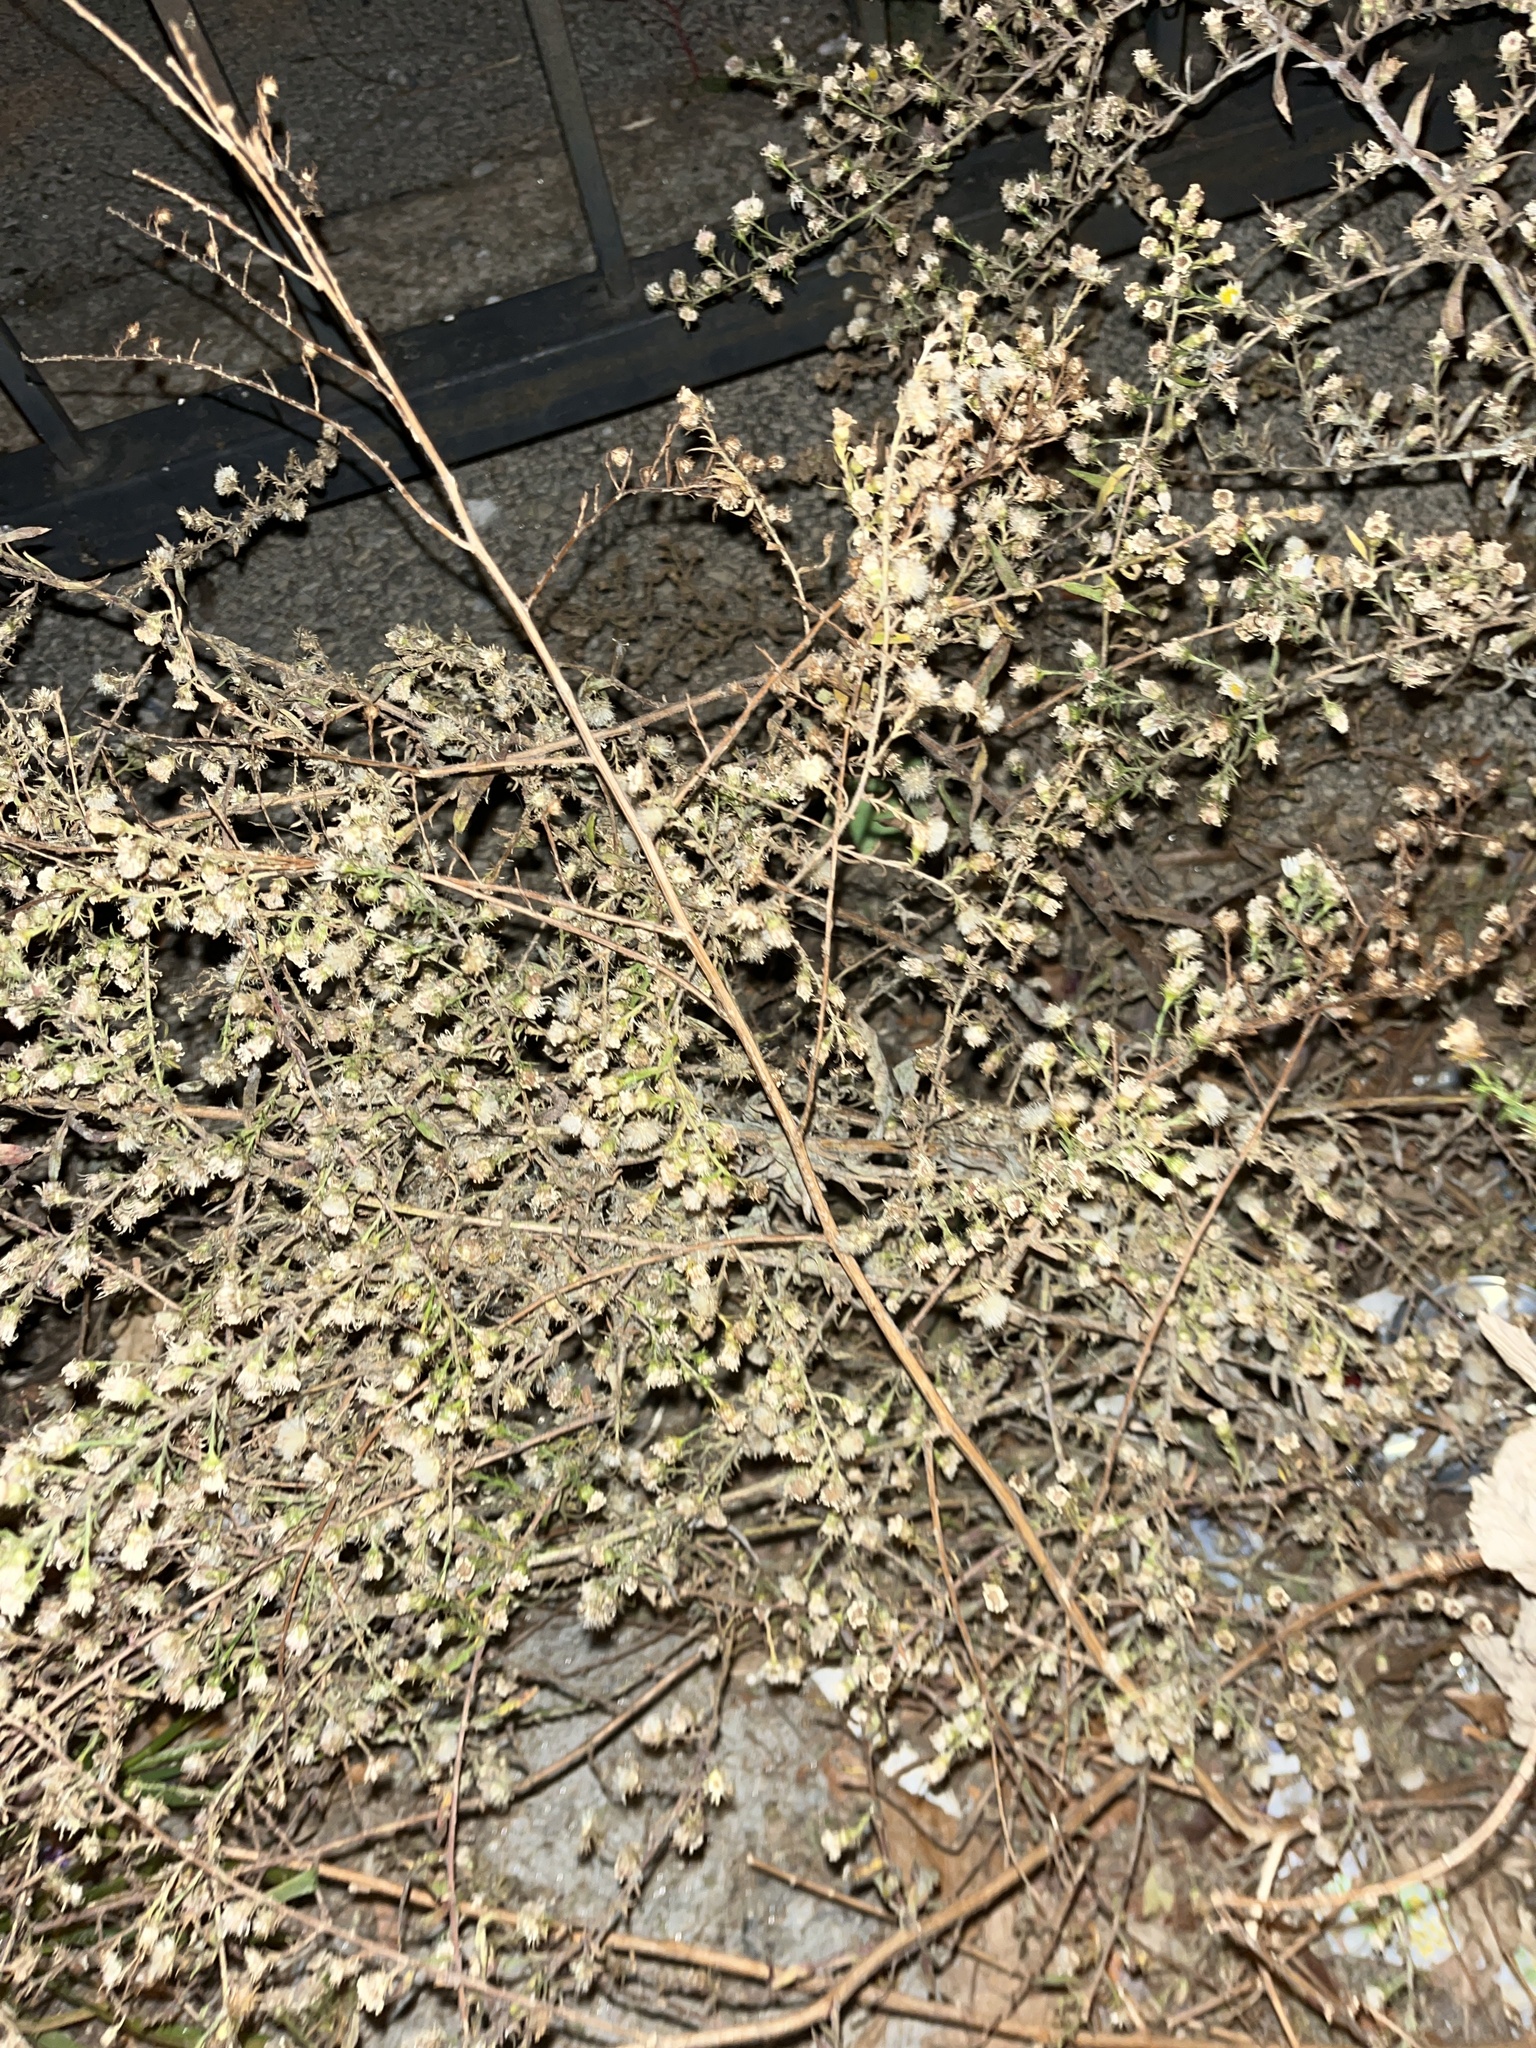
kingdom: Plantae
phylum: Tracheophyta
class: Magnoliopsida
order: Asterales
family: Asteraceae
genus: Artemisia
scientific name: Artemisia annua
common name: Sweet sagewort
